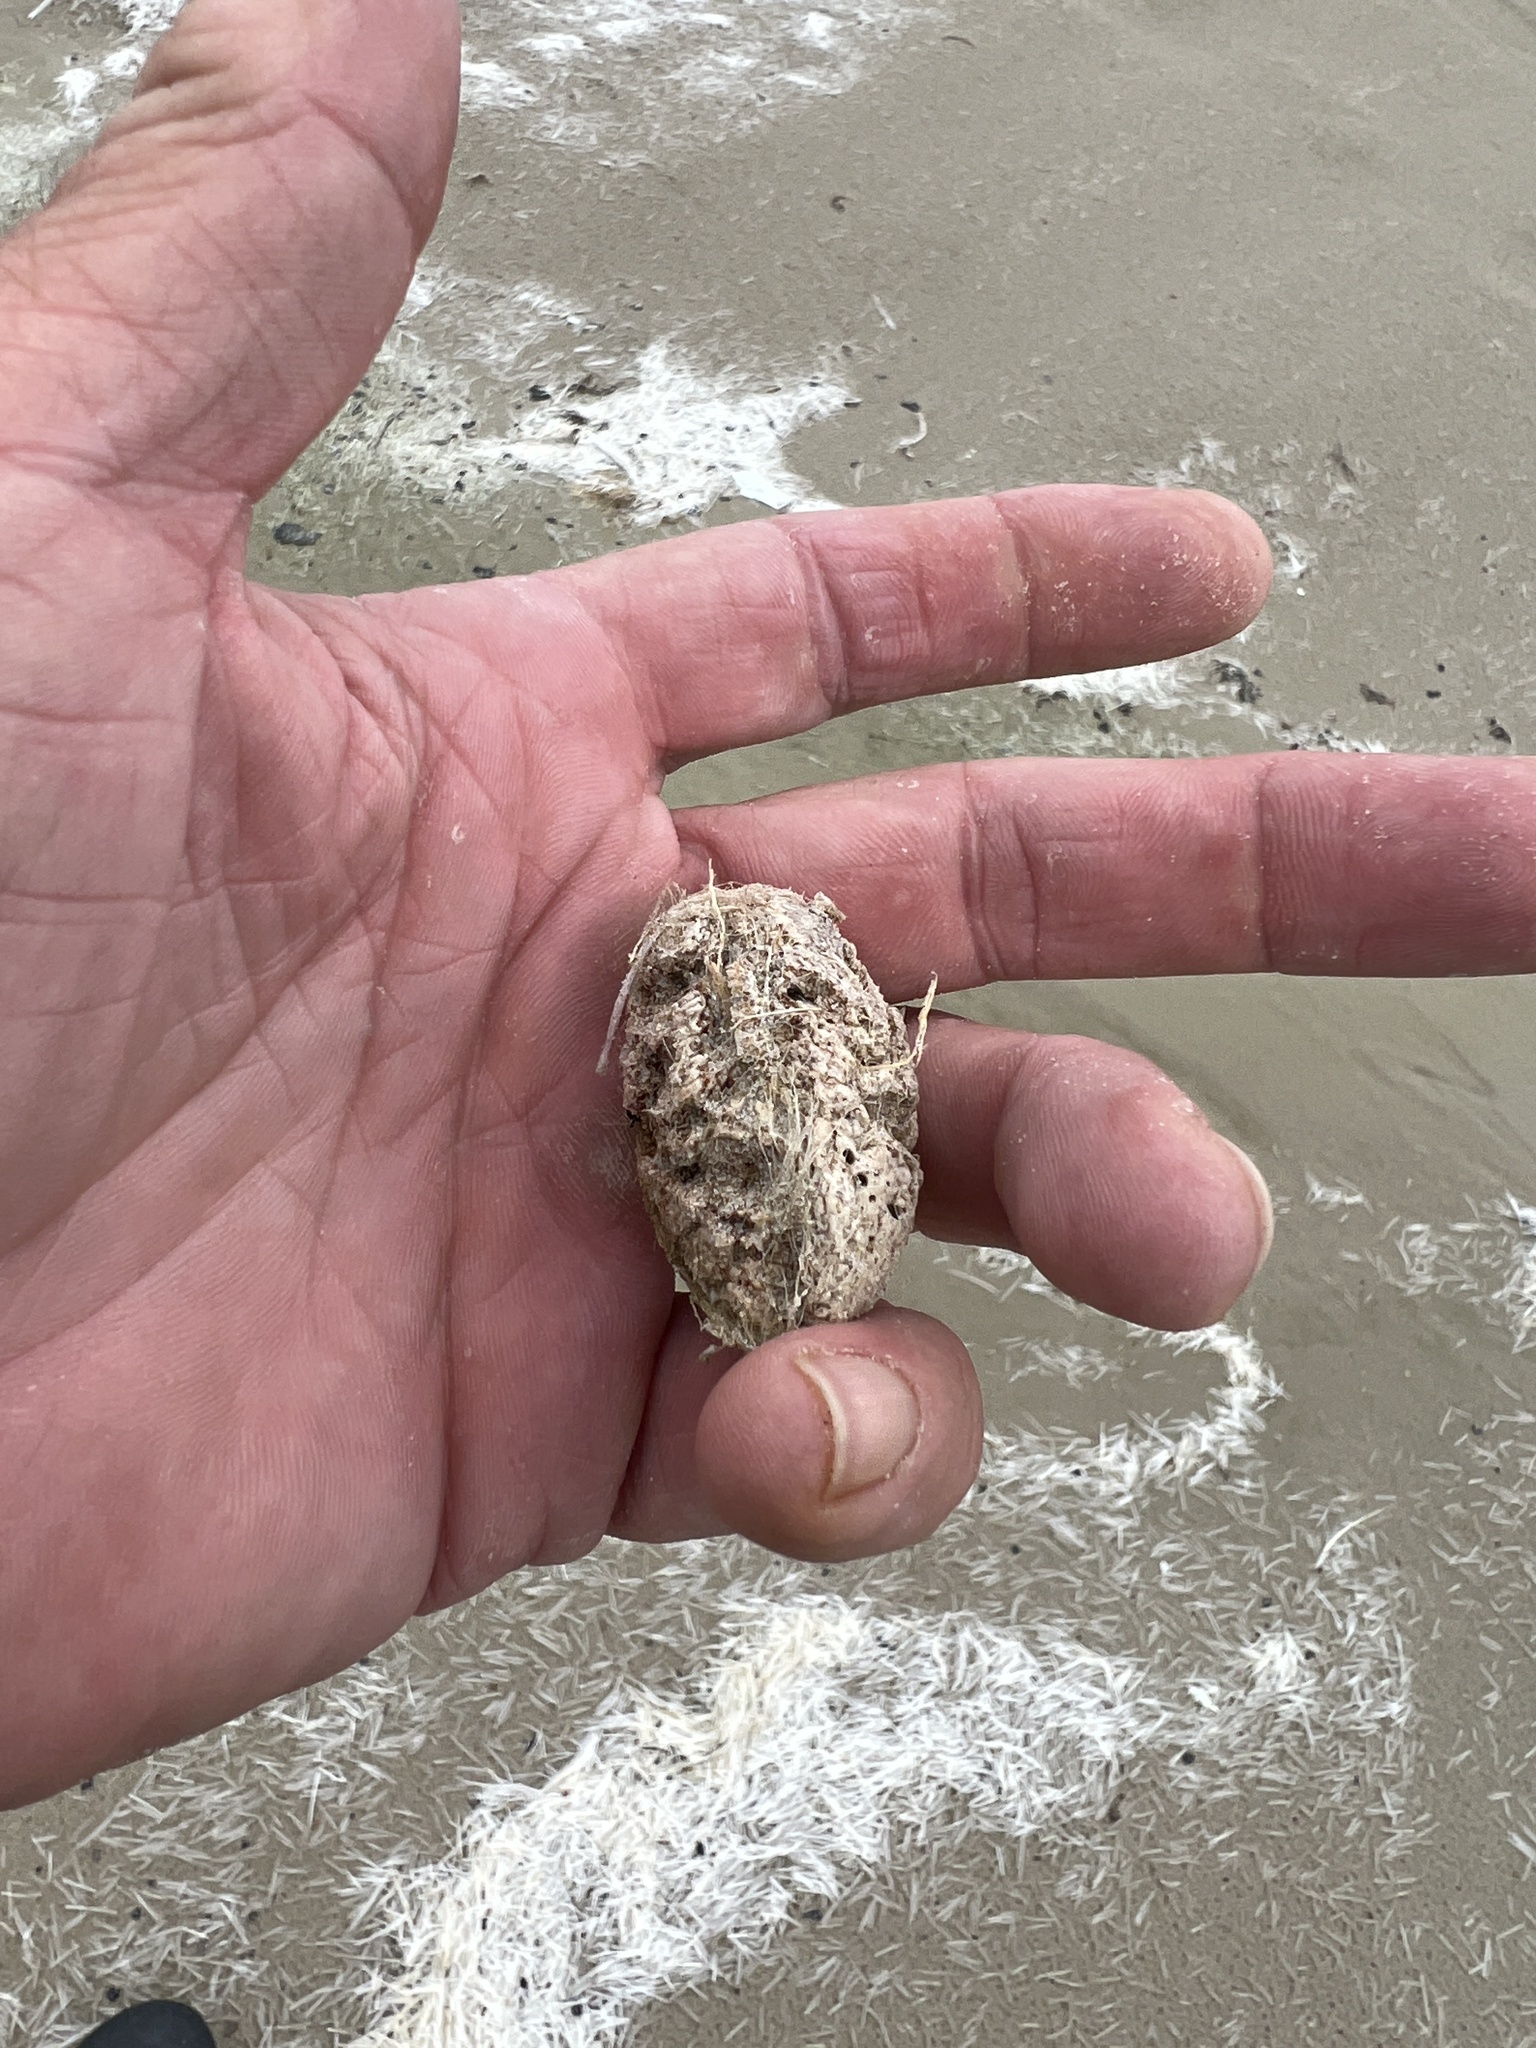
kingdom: Plantae
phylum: Tracheophyta
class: Magnoliopsida
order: Myrtales
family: Combretaceae
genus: Terminalia
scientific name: Terminalia catappa
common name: Tropical almond
